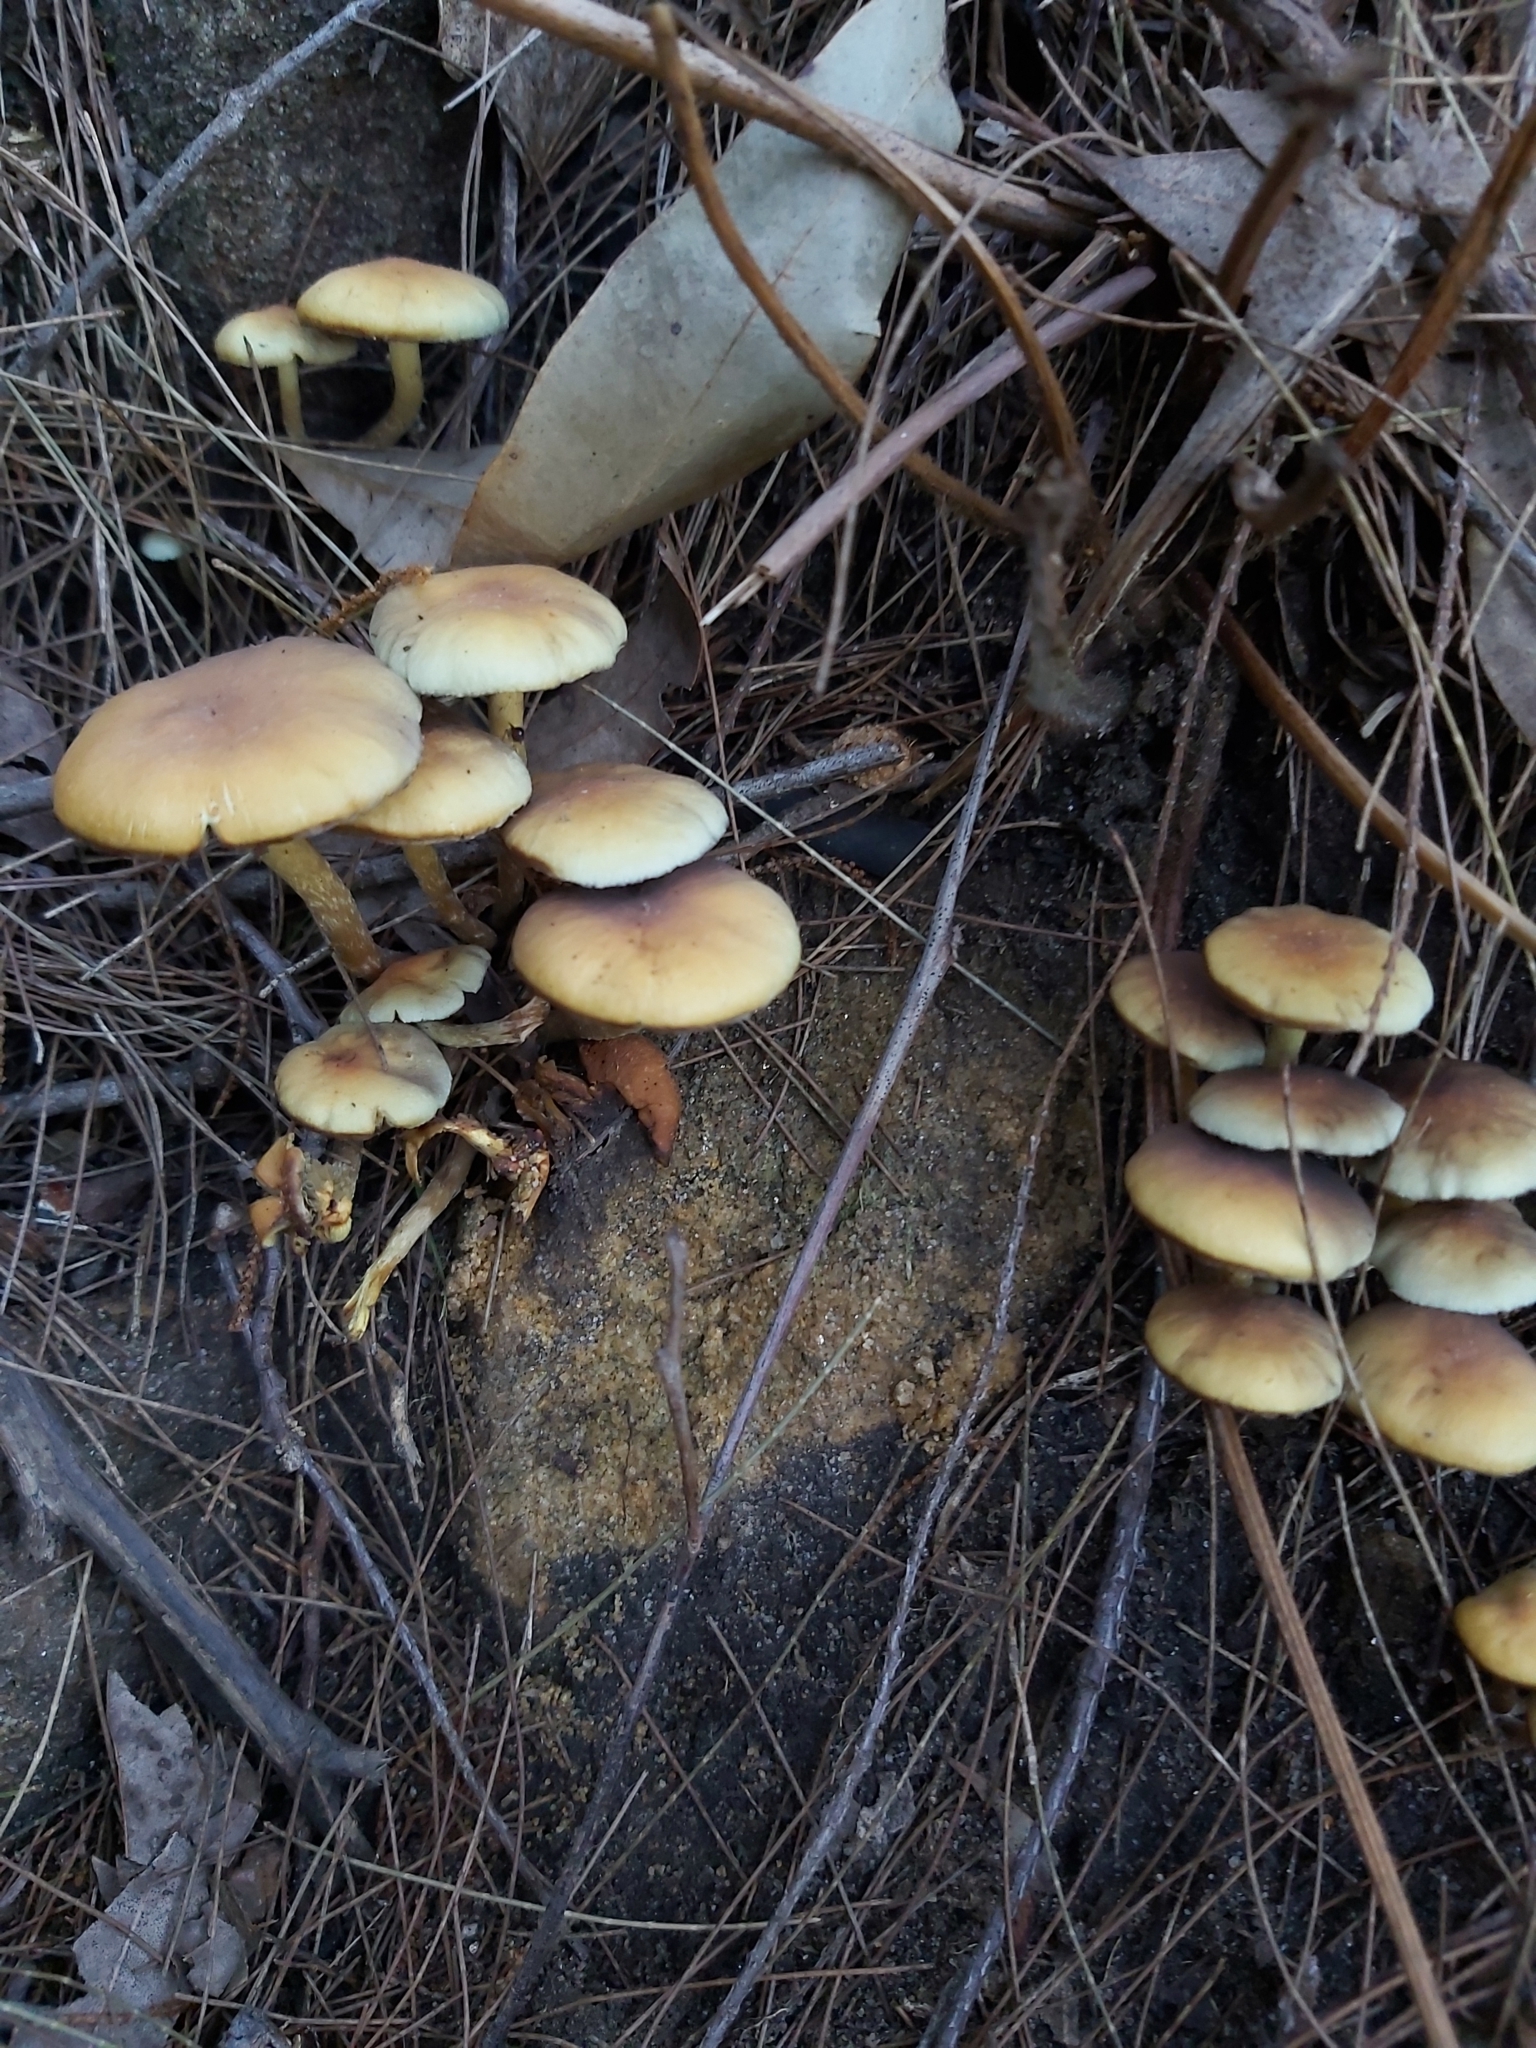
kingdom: Fungi
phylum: Basidiomycota
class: Agaricomycetes
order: Agaricales
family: Strophariaceae
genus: Hypholoma
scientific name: Hypholoma fasciculare
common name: Sulphur tuft
